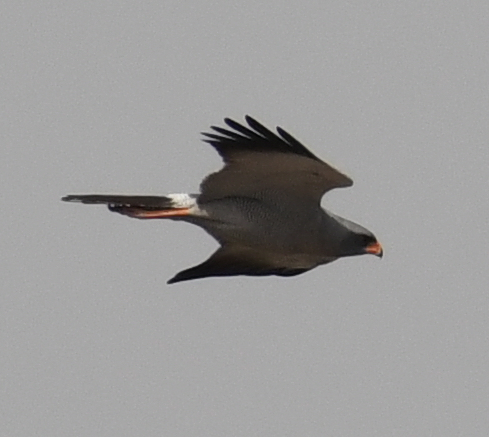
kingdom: Animalia
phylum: Chordata
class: Aves
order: Accipitriformes
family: Accipitridae
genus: Melierax
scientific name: Melierax metabates
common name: Dark chanting-goshawk
